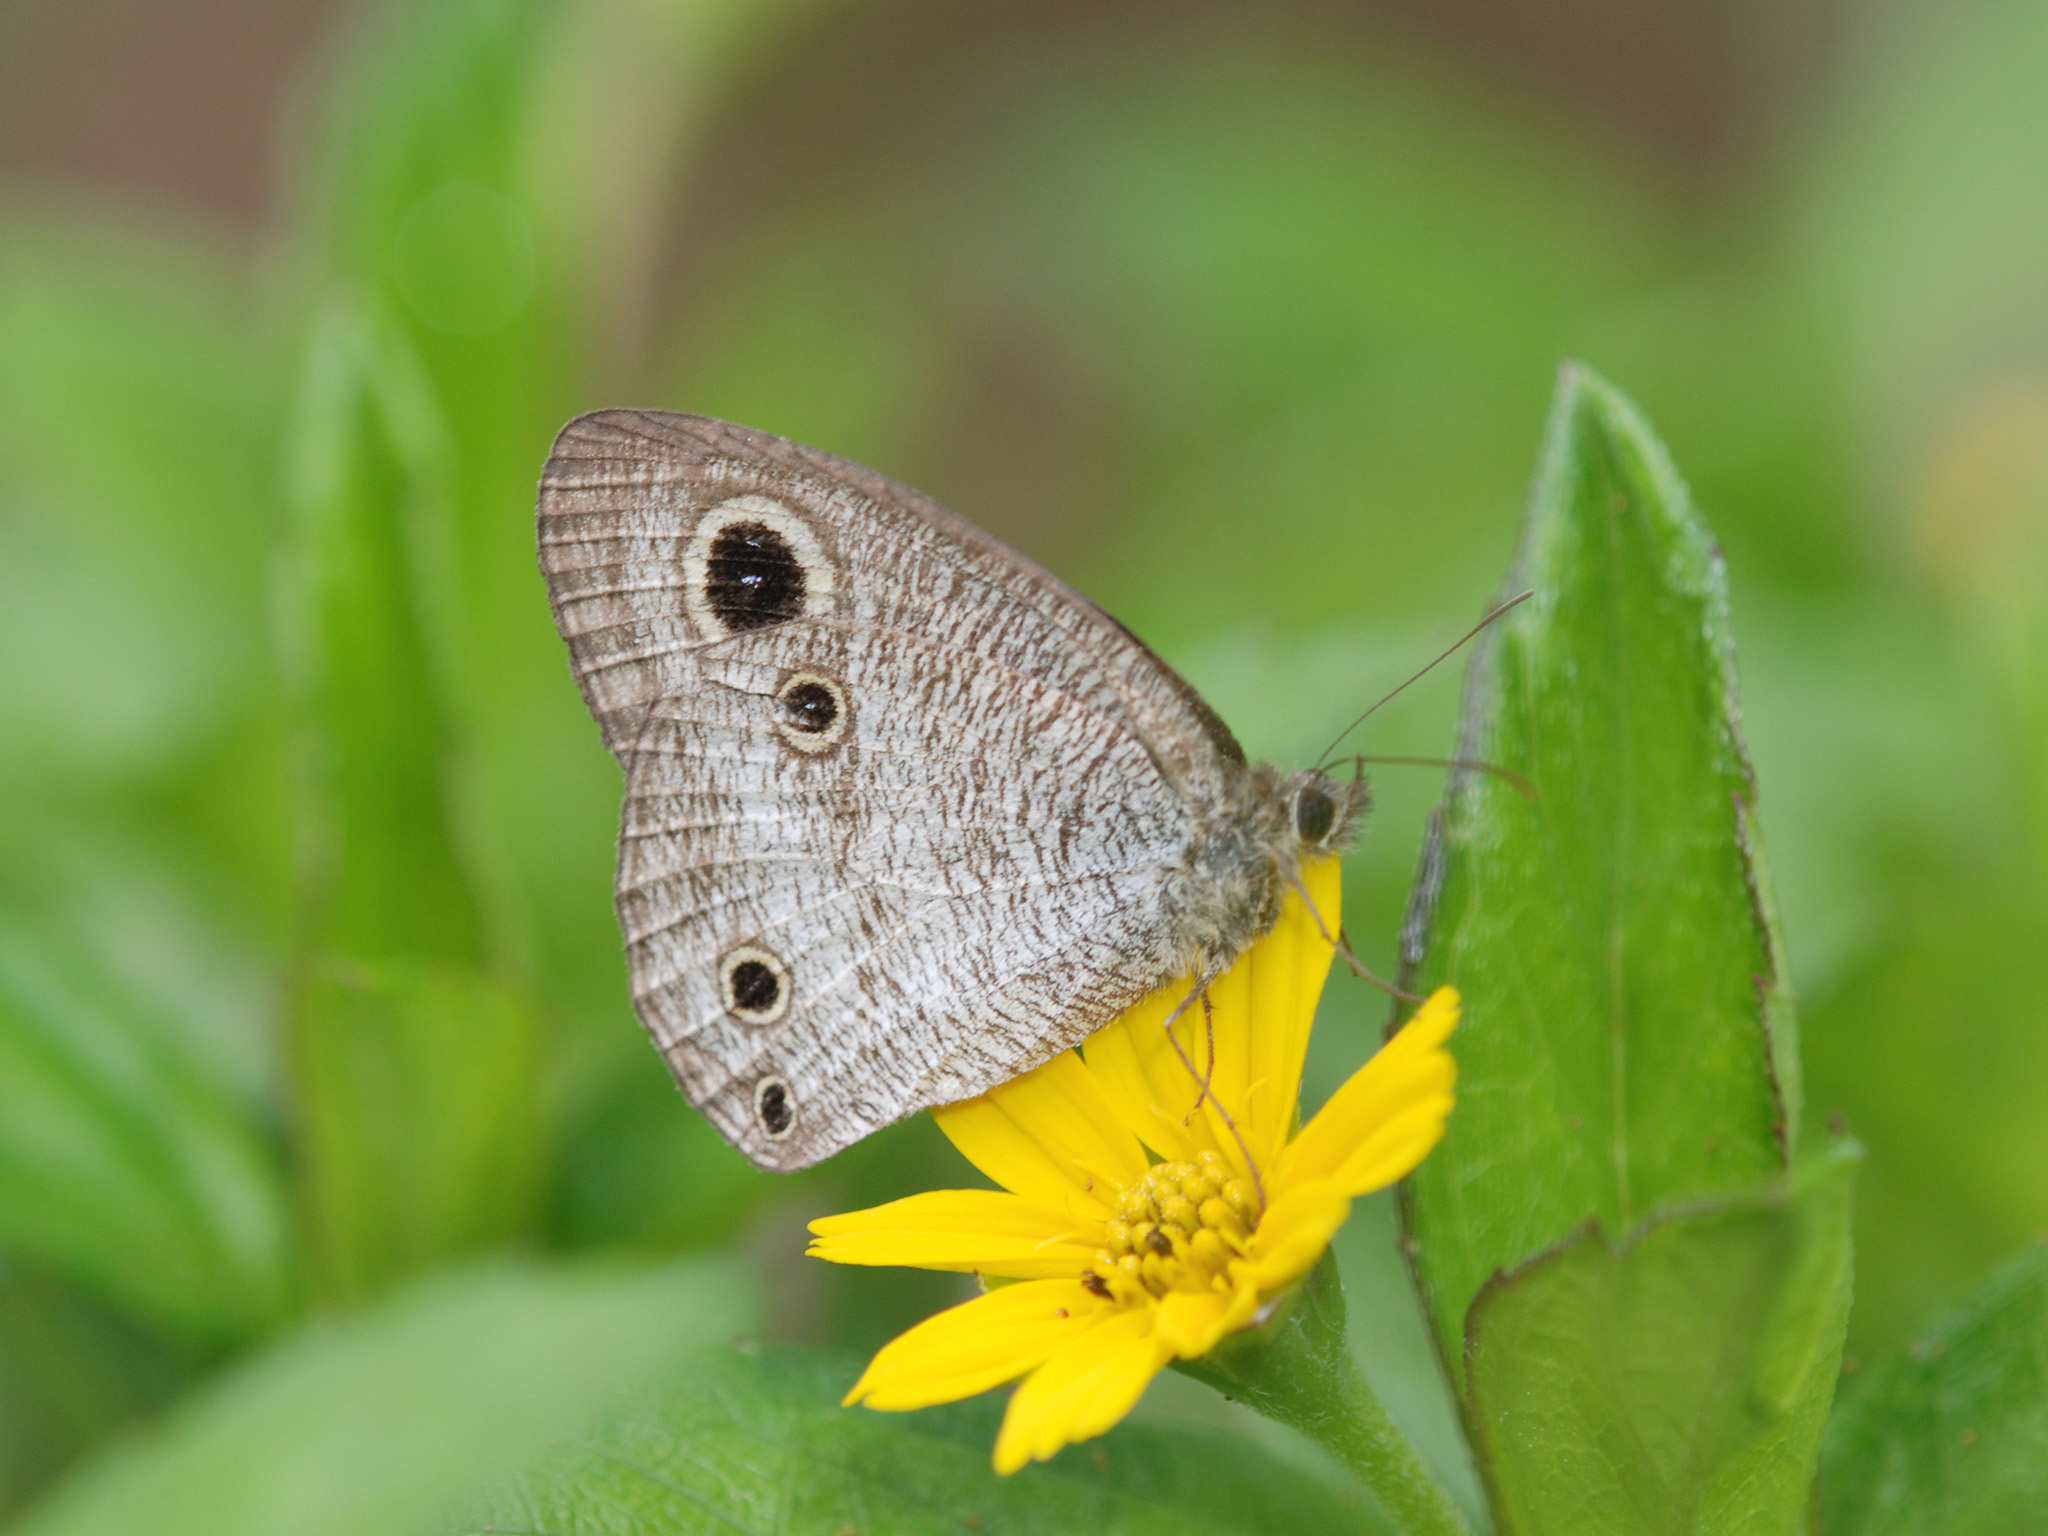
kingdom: Animalia
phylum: Arthropoda
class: Insecta
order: Lepidoptera
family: Nymphalidae
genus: Ypthima
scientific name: Ypthima pandocus
